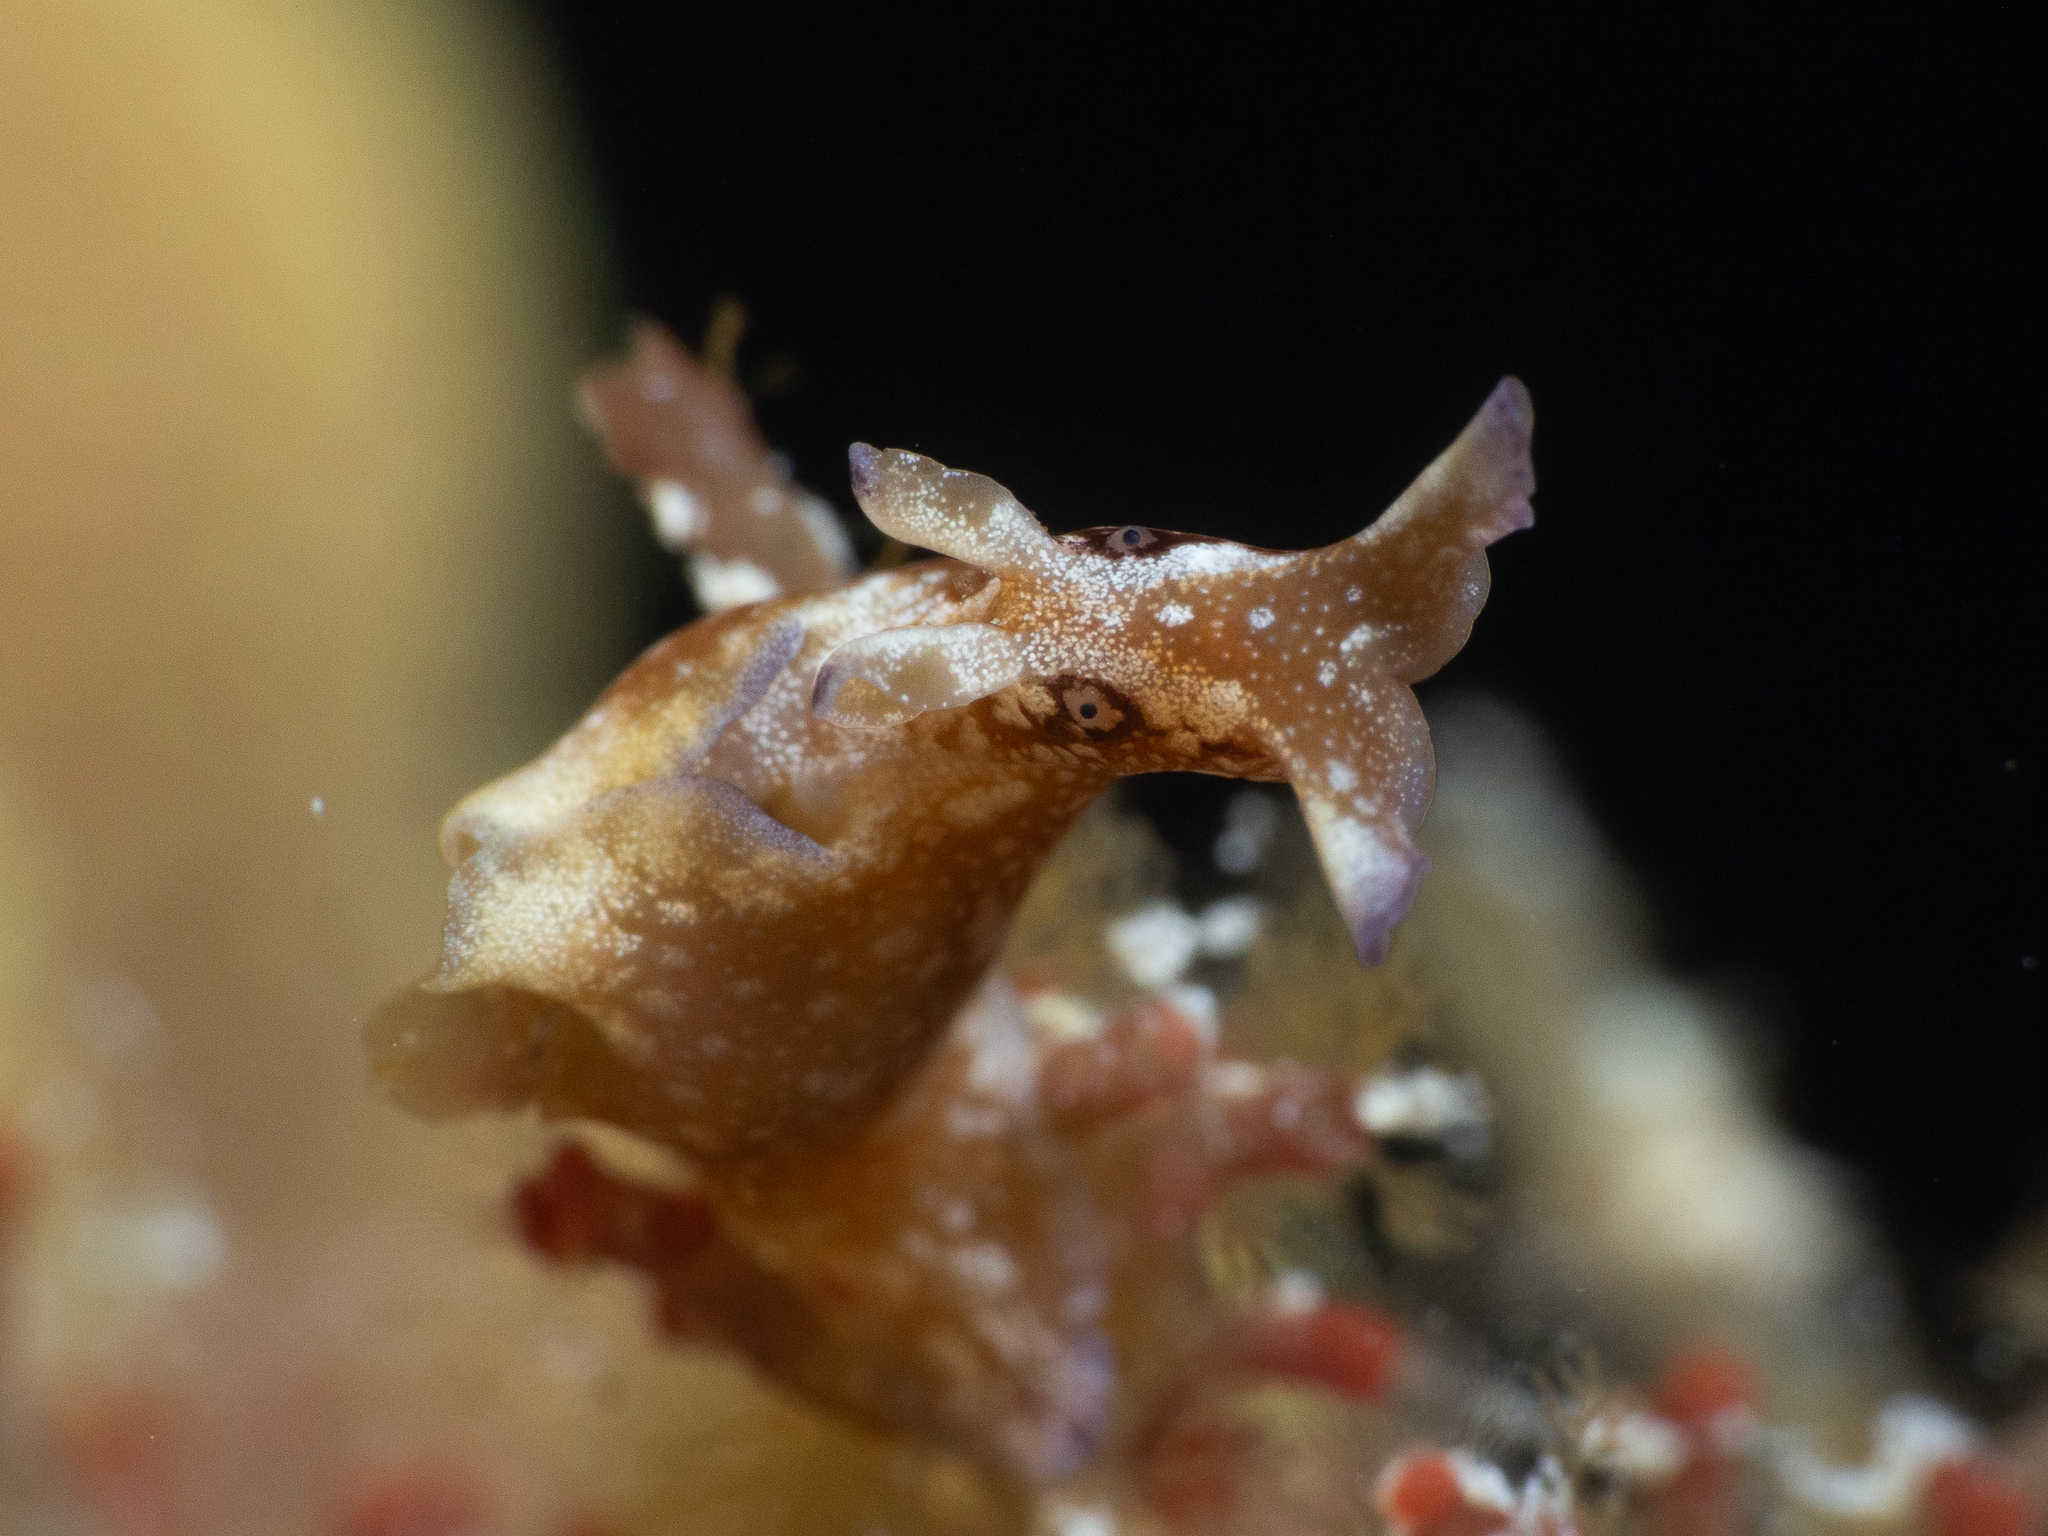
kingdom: Animalia
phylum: Mollusca
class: Gastropoda
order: Aplysiida
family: Aplysiidae
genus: Aplysia
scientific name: Aplysia parvula
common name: Dwarf sea hare
